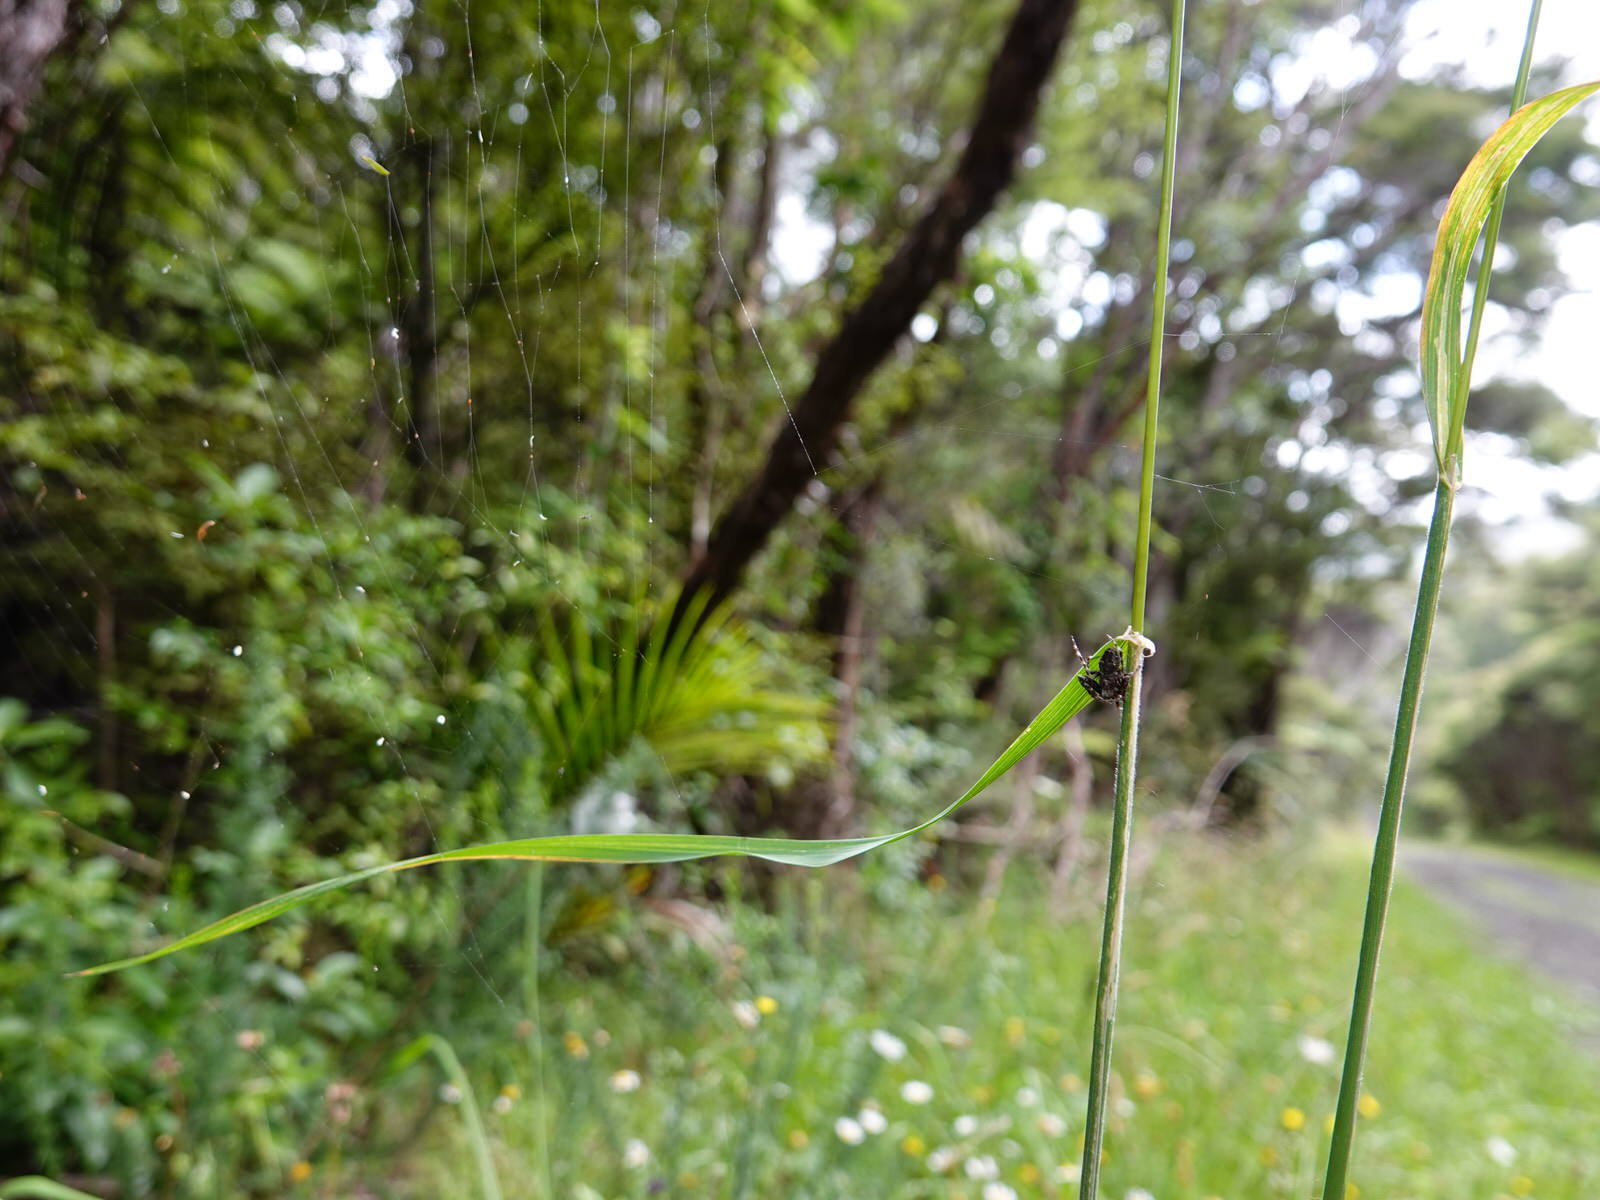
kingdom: Animalia
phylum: Arthropoda
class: Arachnida
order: Araneae
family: Araneidae
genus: Eriophora
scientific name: Eriophora pustulosa
